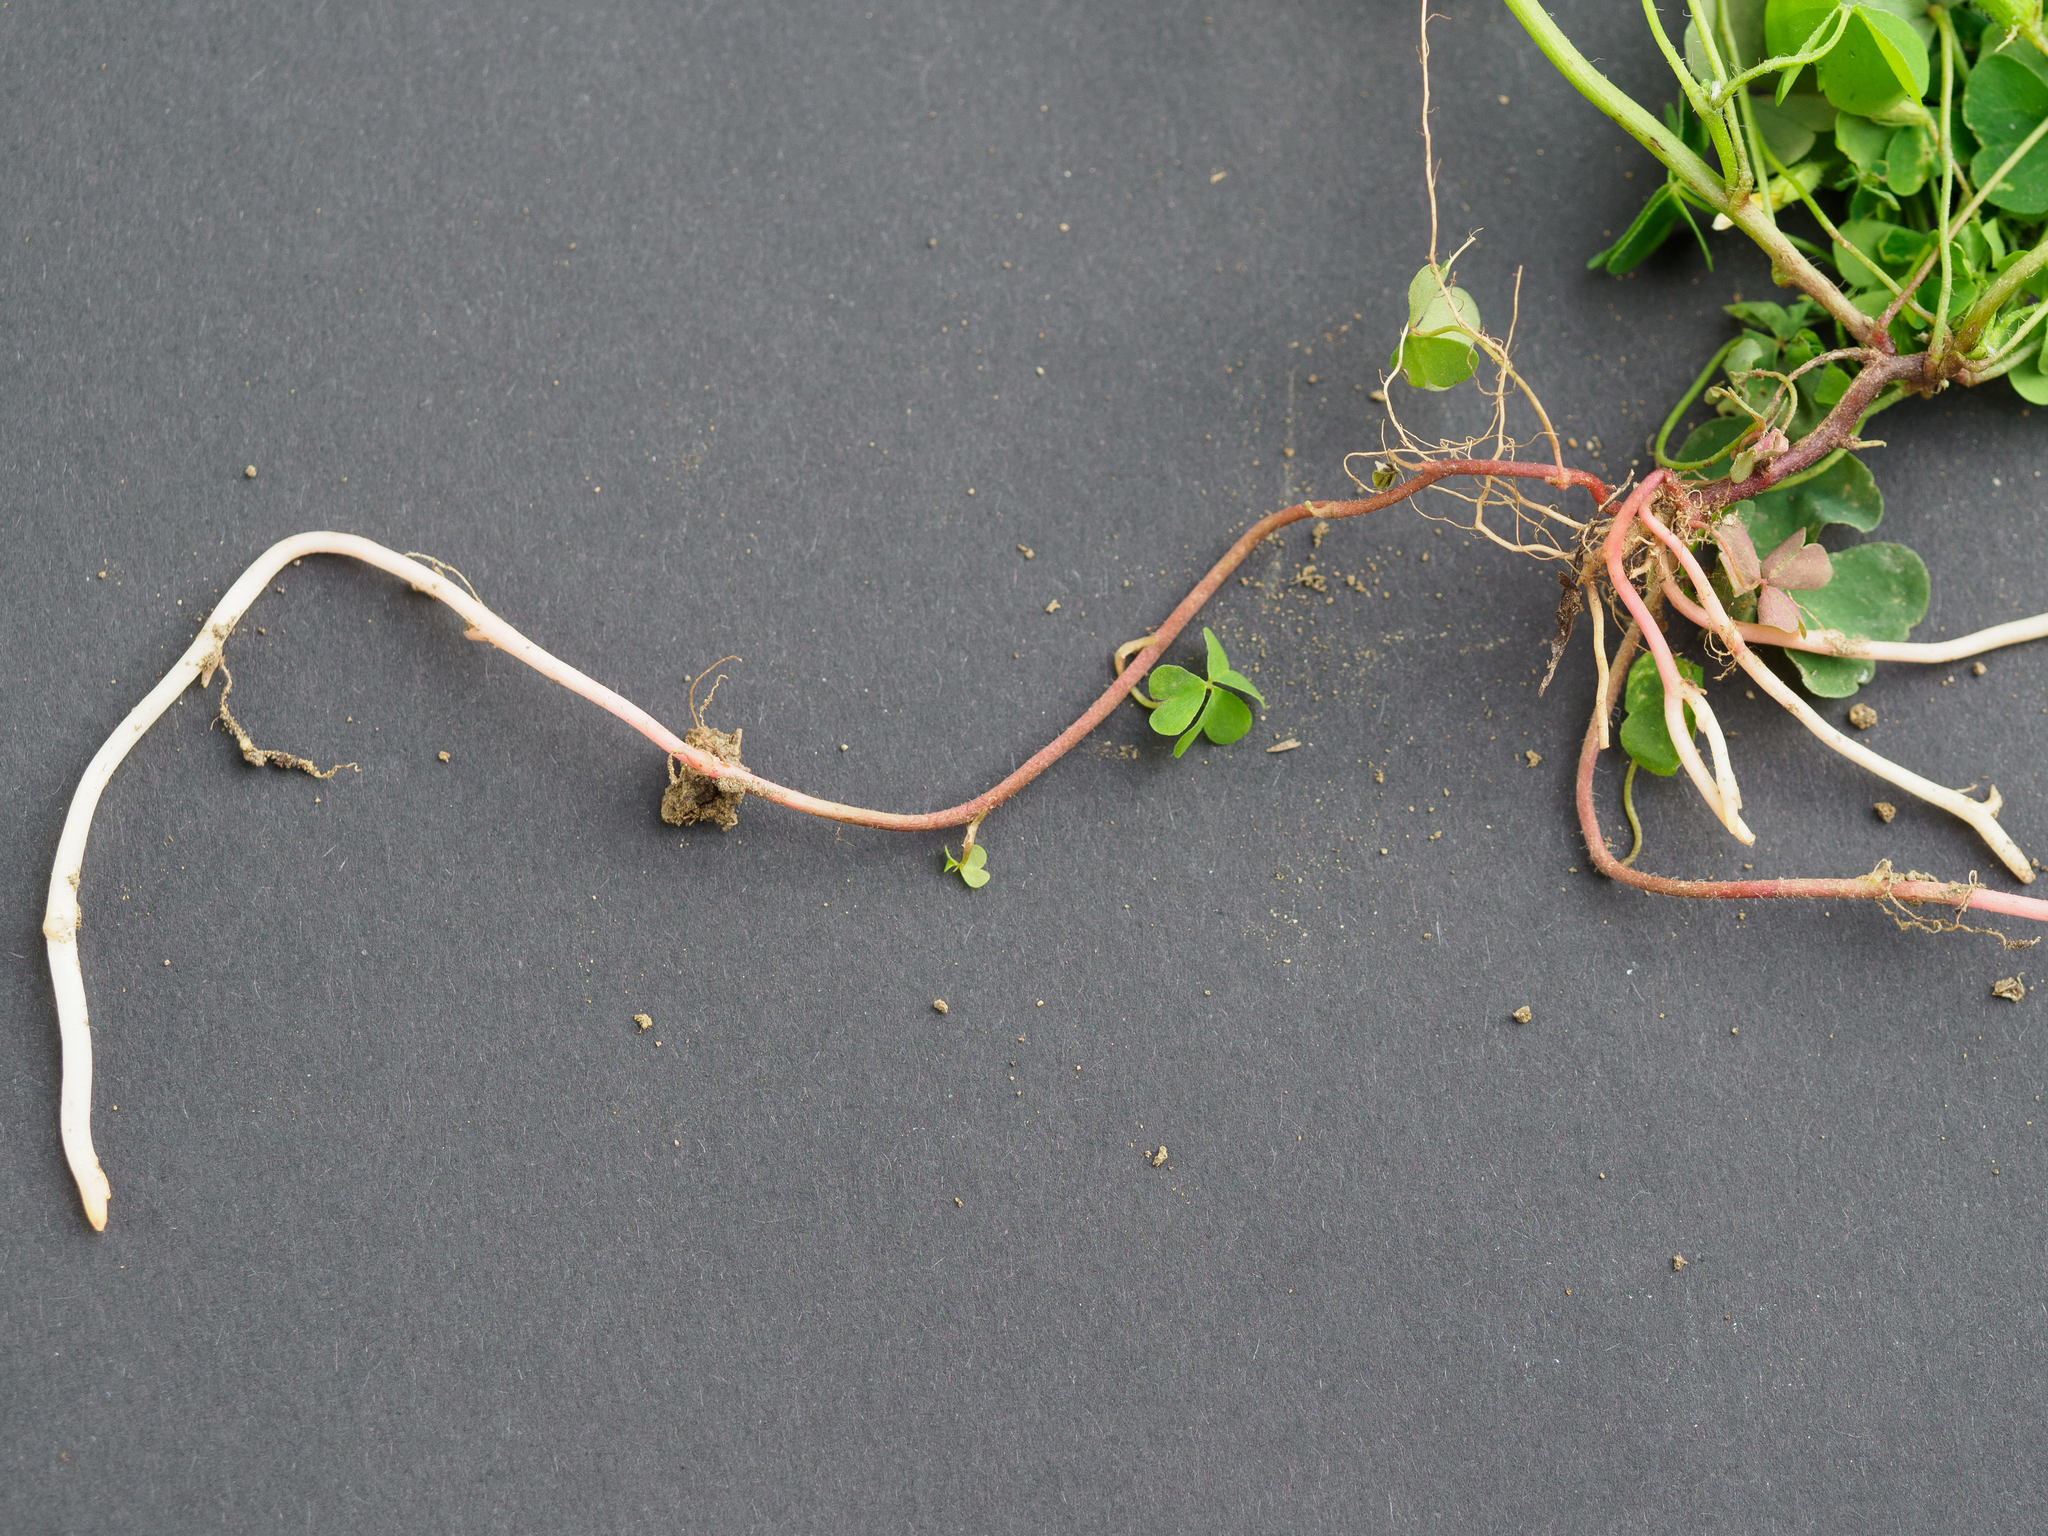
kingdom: Plantae
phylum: Tracheophyta
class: Magnoliopsida
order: Oxalidales
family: Oxalidaceae
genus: Oxalis
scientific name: Oxalis stricta
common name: Upright yellow-sorrel
